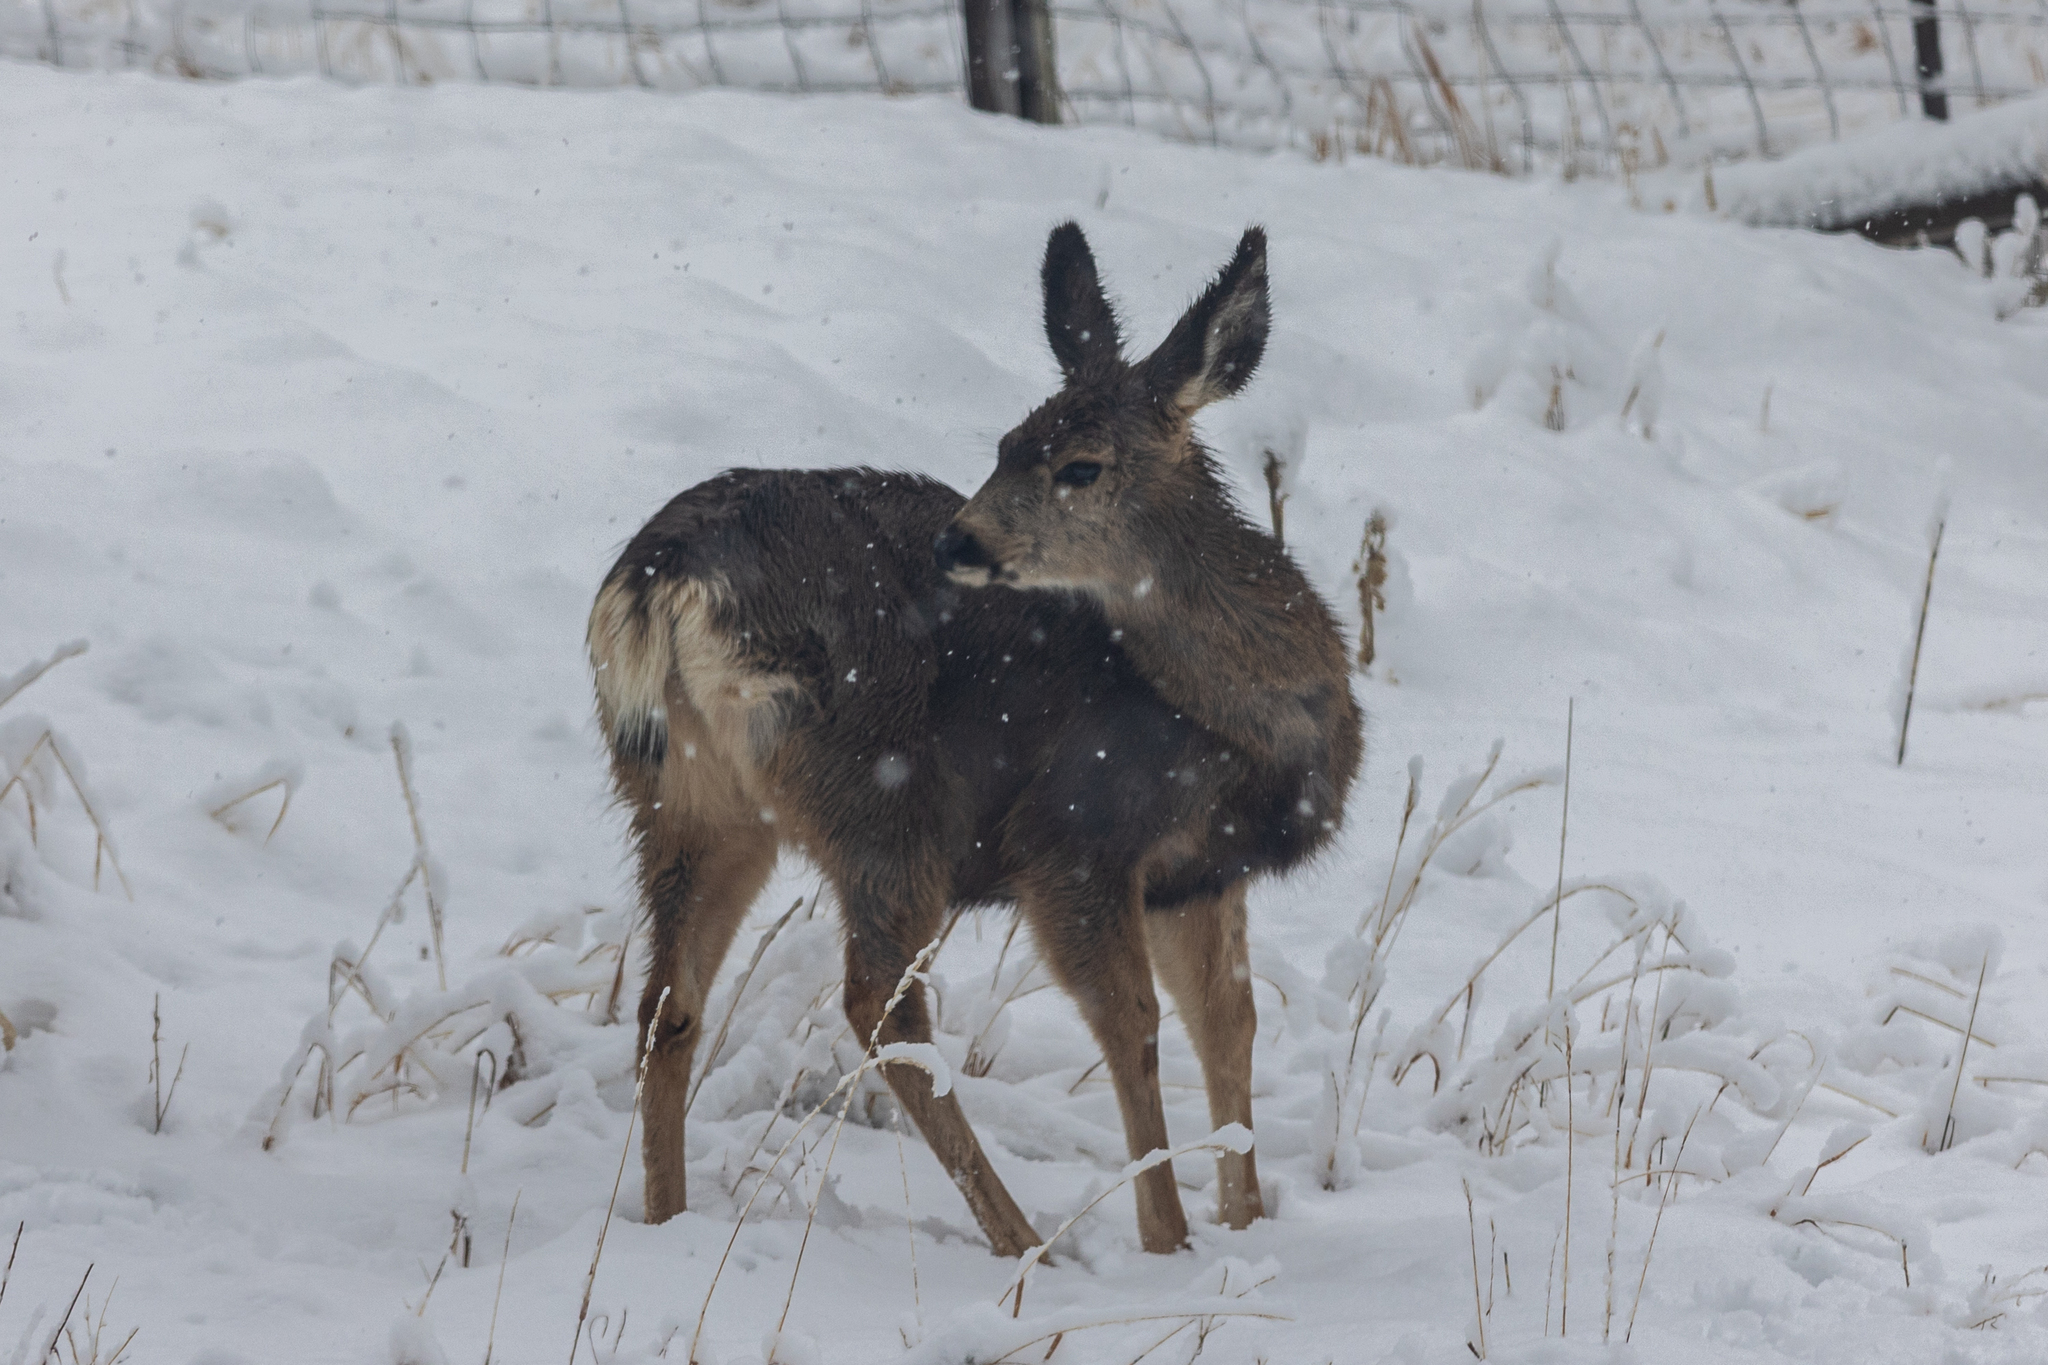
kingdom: Animalia
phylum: Chordata
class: Mammalia
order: Artiodactyla
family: Cervidae
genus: Odocoileus
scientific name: Odocoileus hemionus
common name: Mule deer
